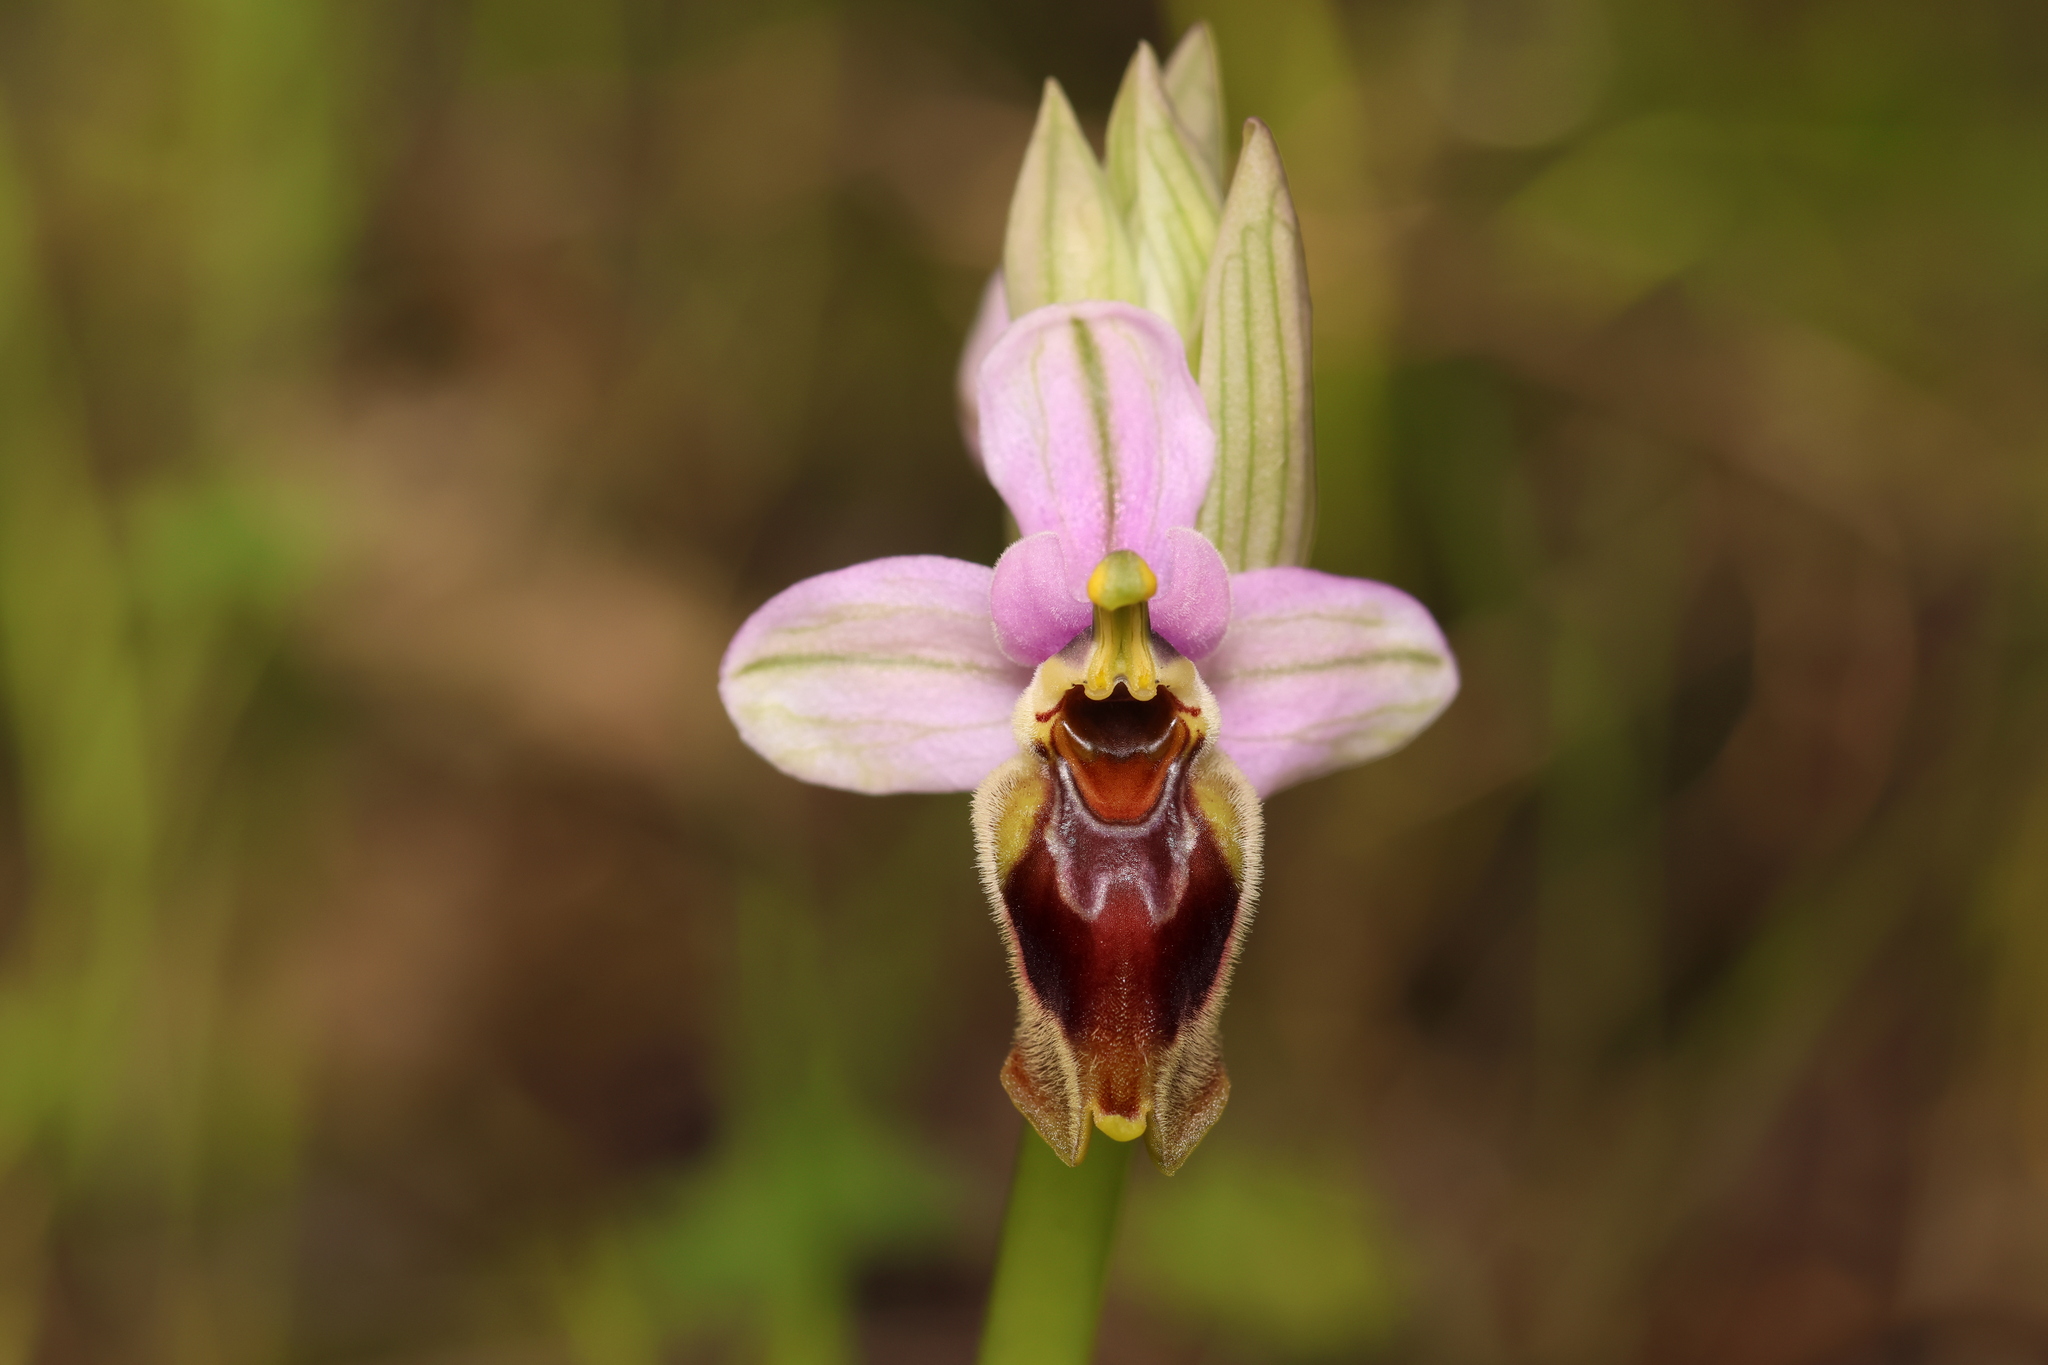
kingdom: Plantae
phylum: Tracheophyta
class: Liliopsida
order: Asparagales
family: Orchidaceae
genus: Ophrys
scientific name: Ophrys tenthredinifera
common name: Sawfly orchid
